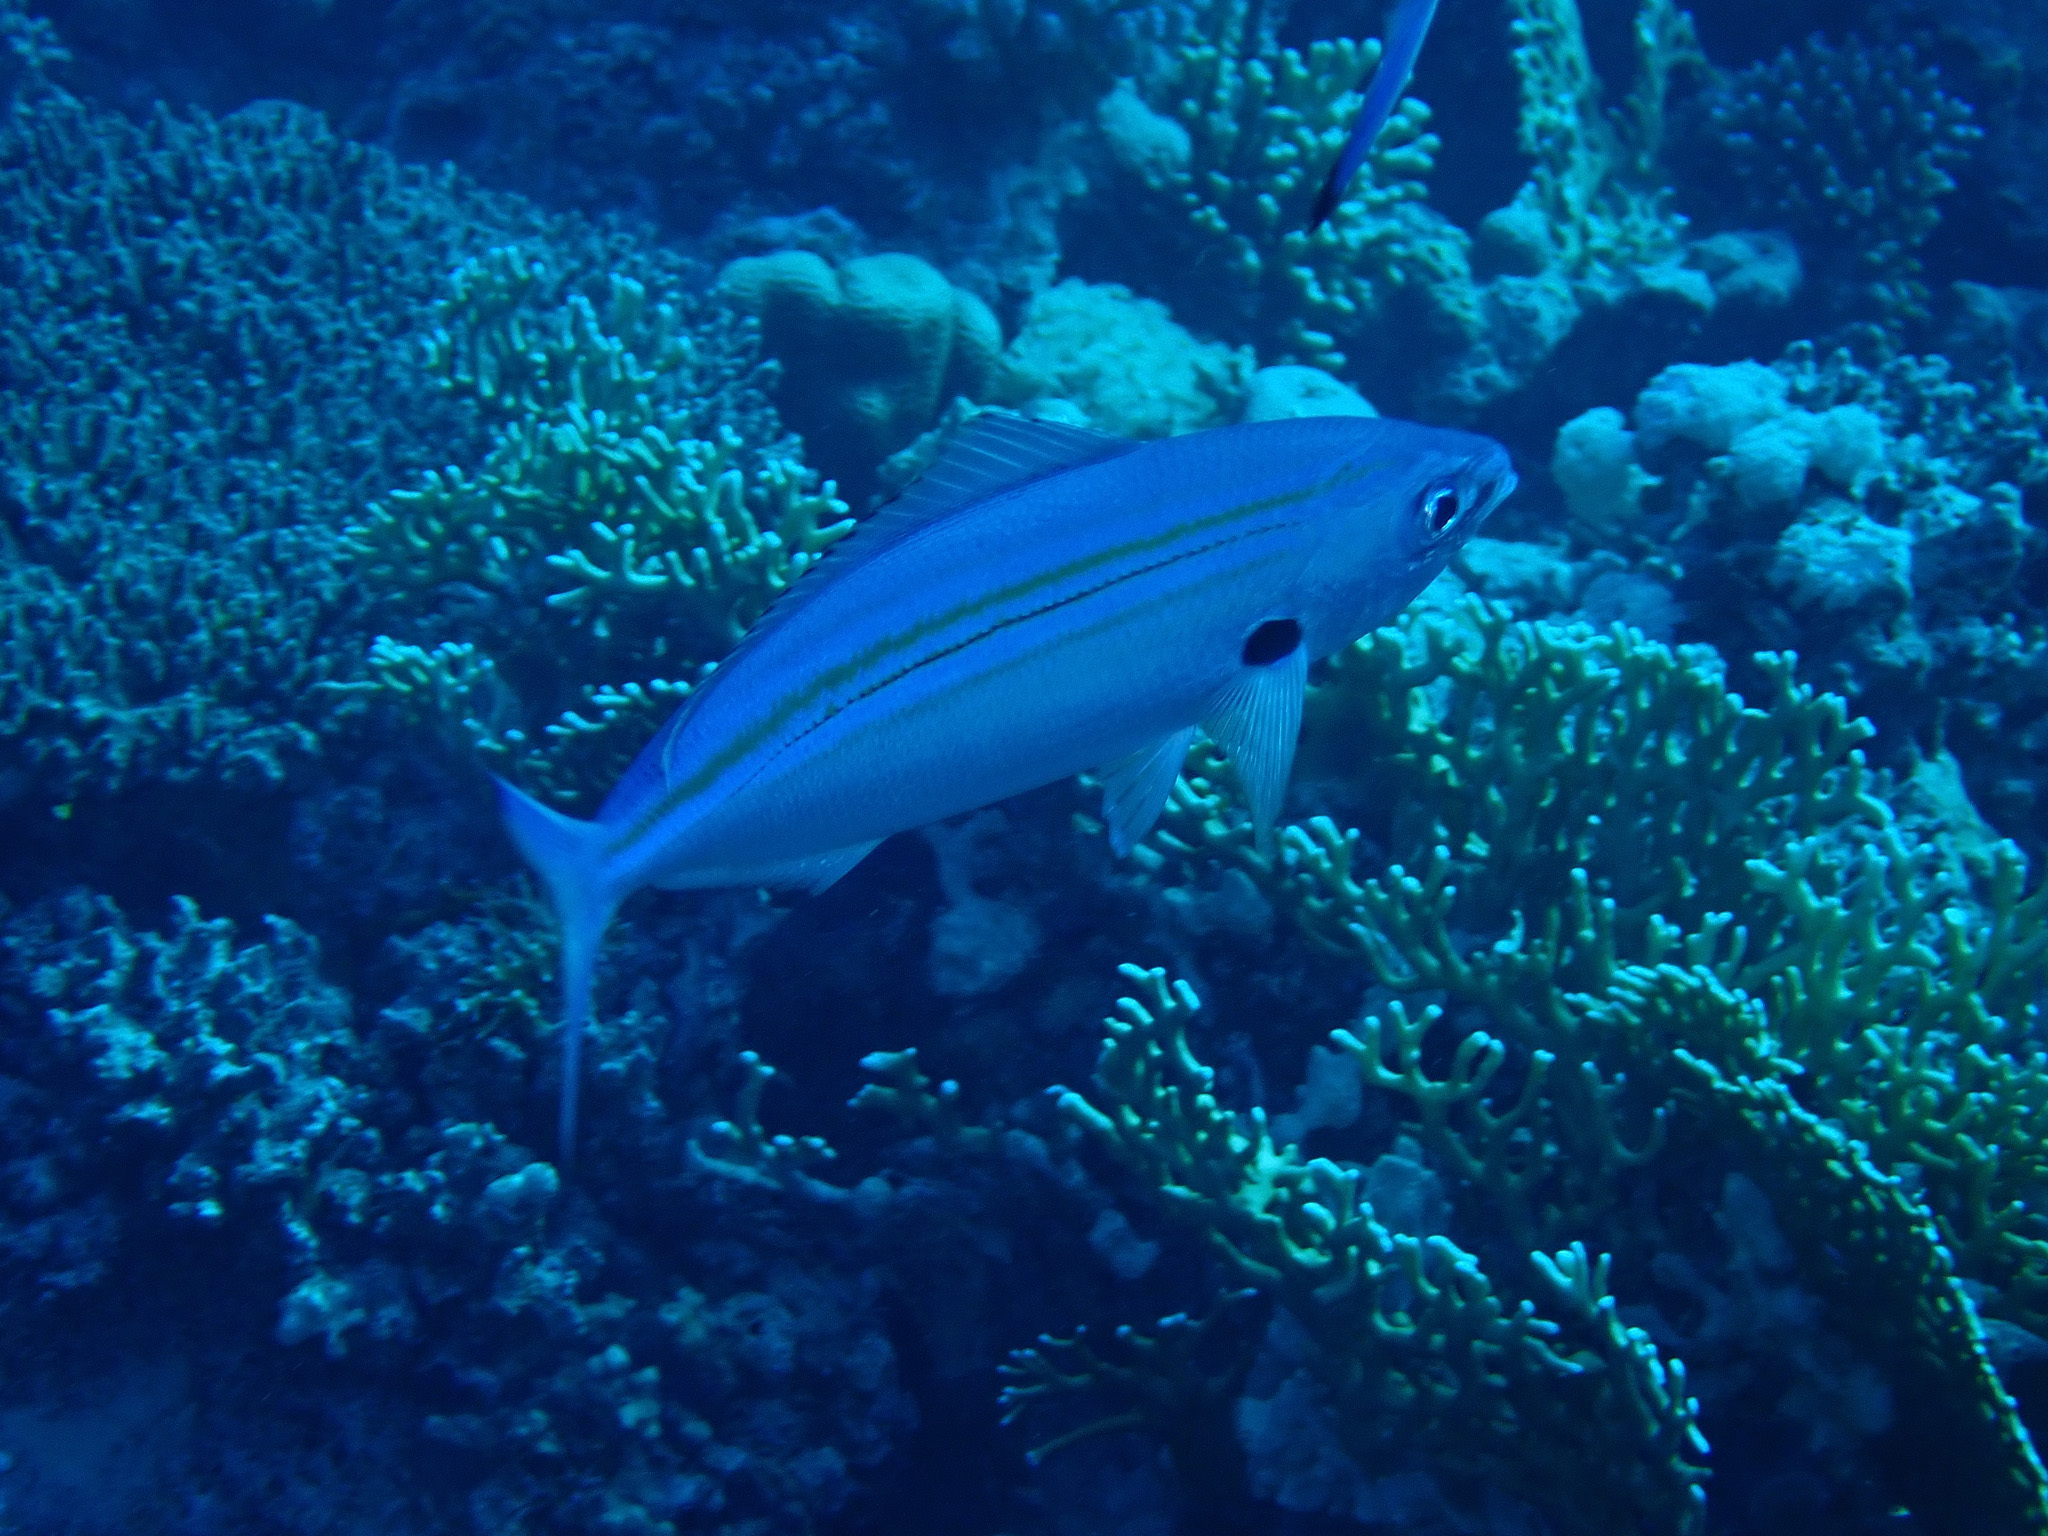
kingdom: Animalia
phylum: Chordata
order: Perciformes
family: Caesionidae
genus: Caesio
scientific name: Caesio varilineata
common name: Variable-lined fusilier
